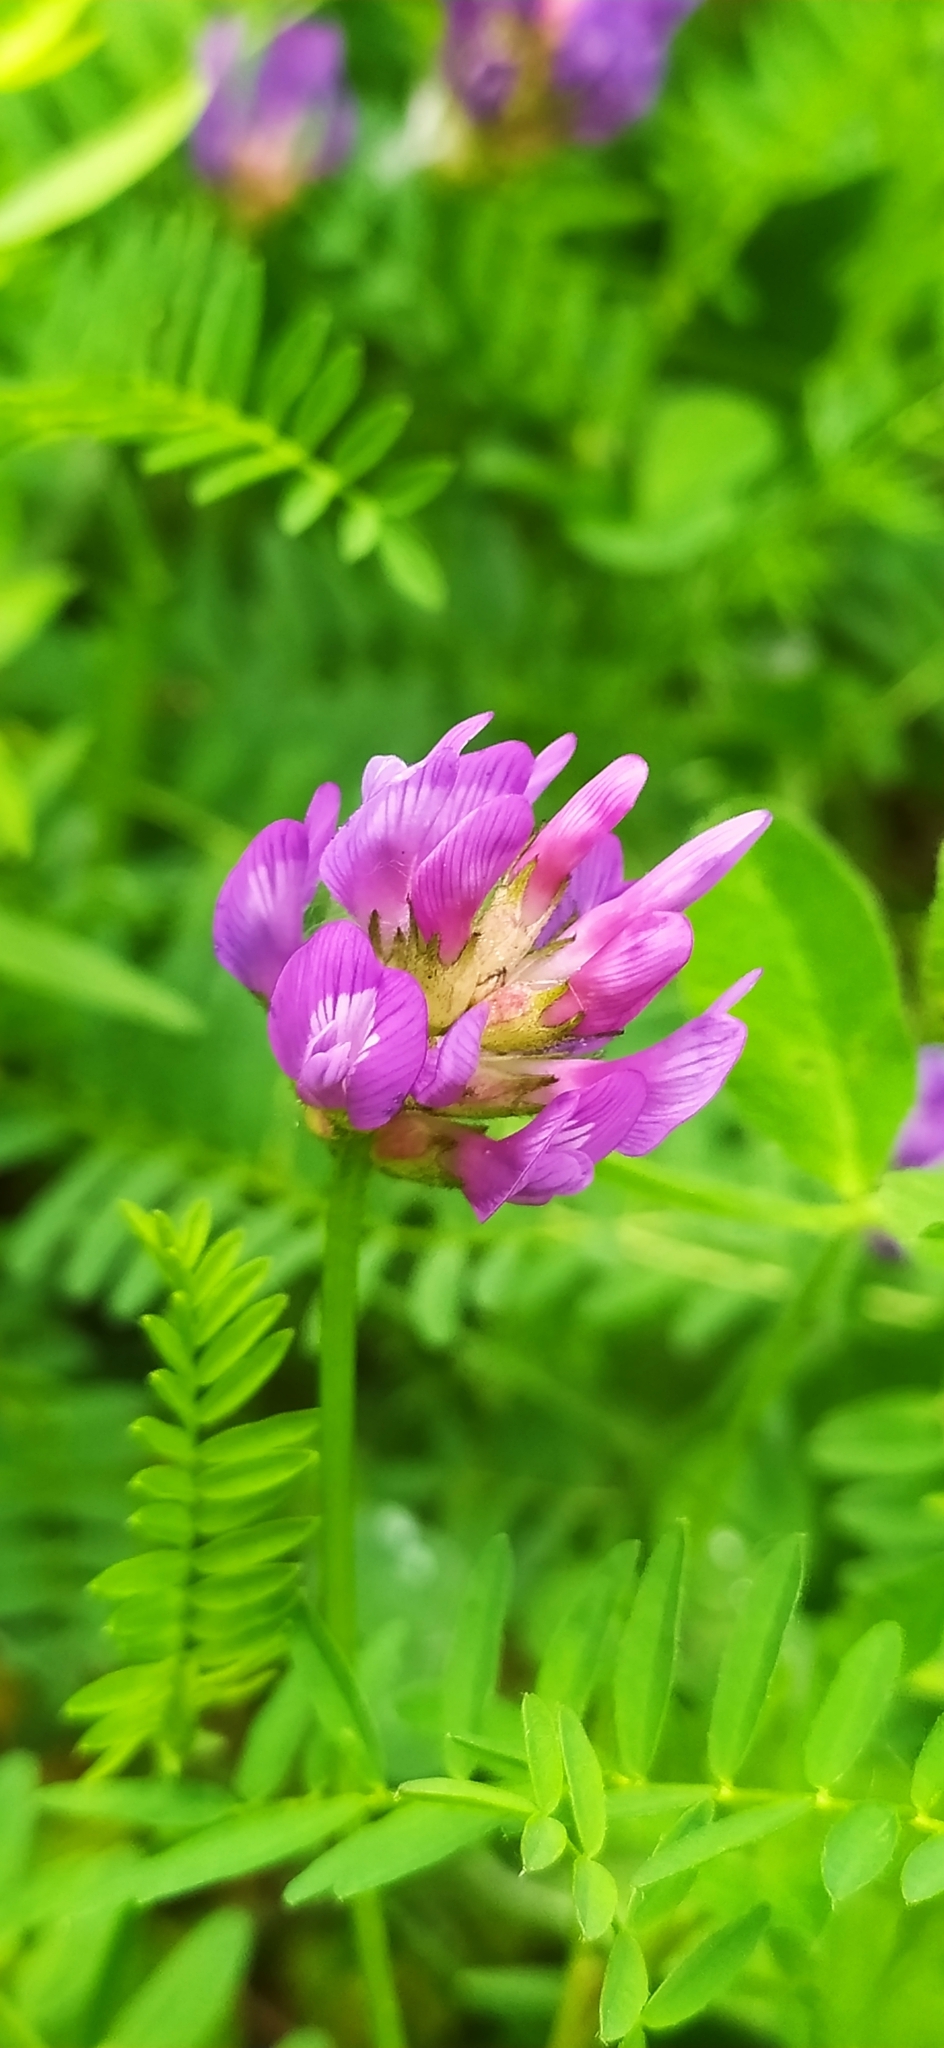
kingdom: Plantae
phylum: Tracheophyta
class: Magnoliopsida
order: Fabales
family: Fabaceae
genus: Astragalus
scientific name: Astragalus danicus
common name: Purple milk-vetch
